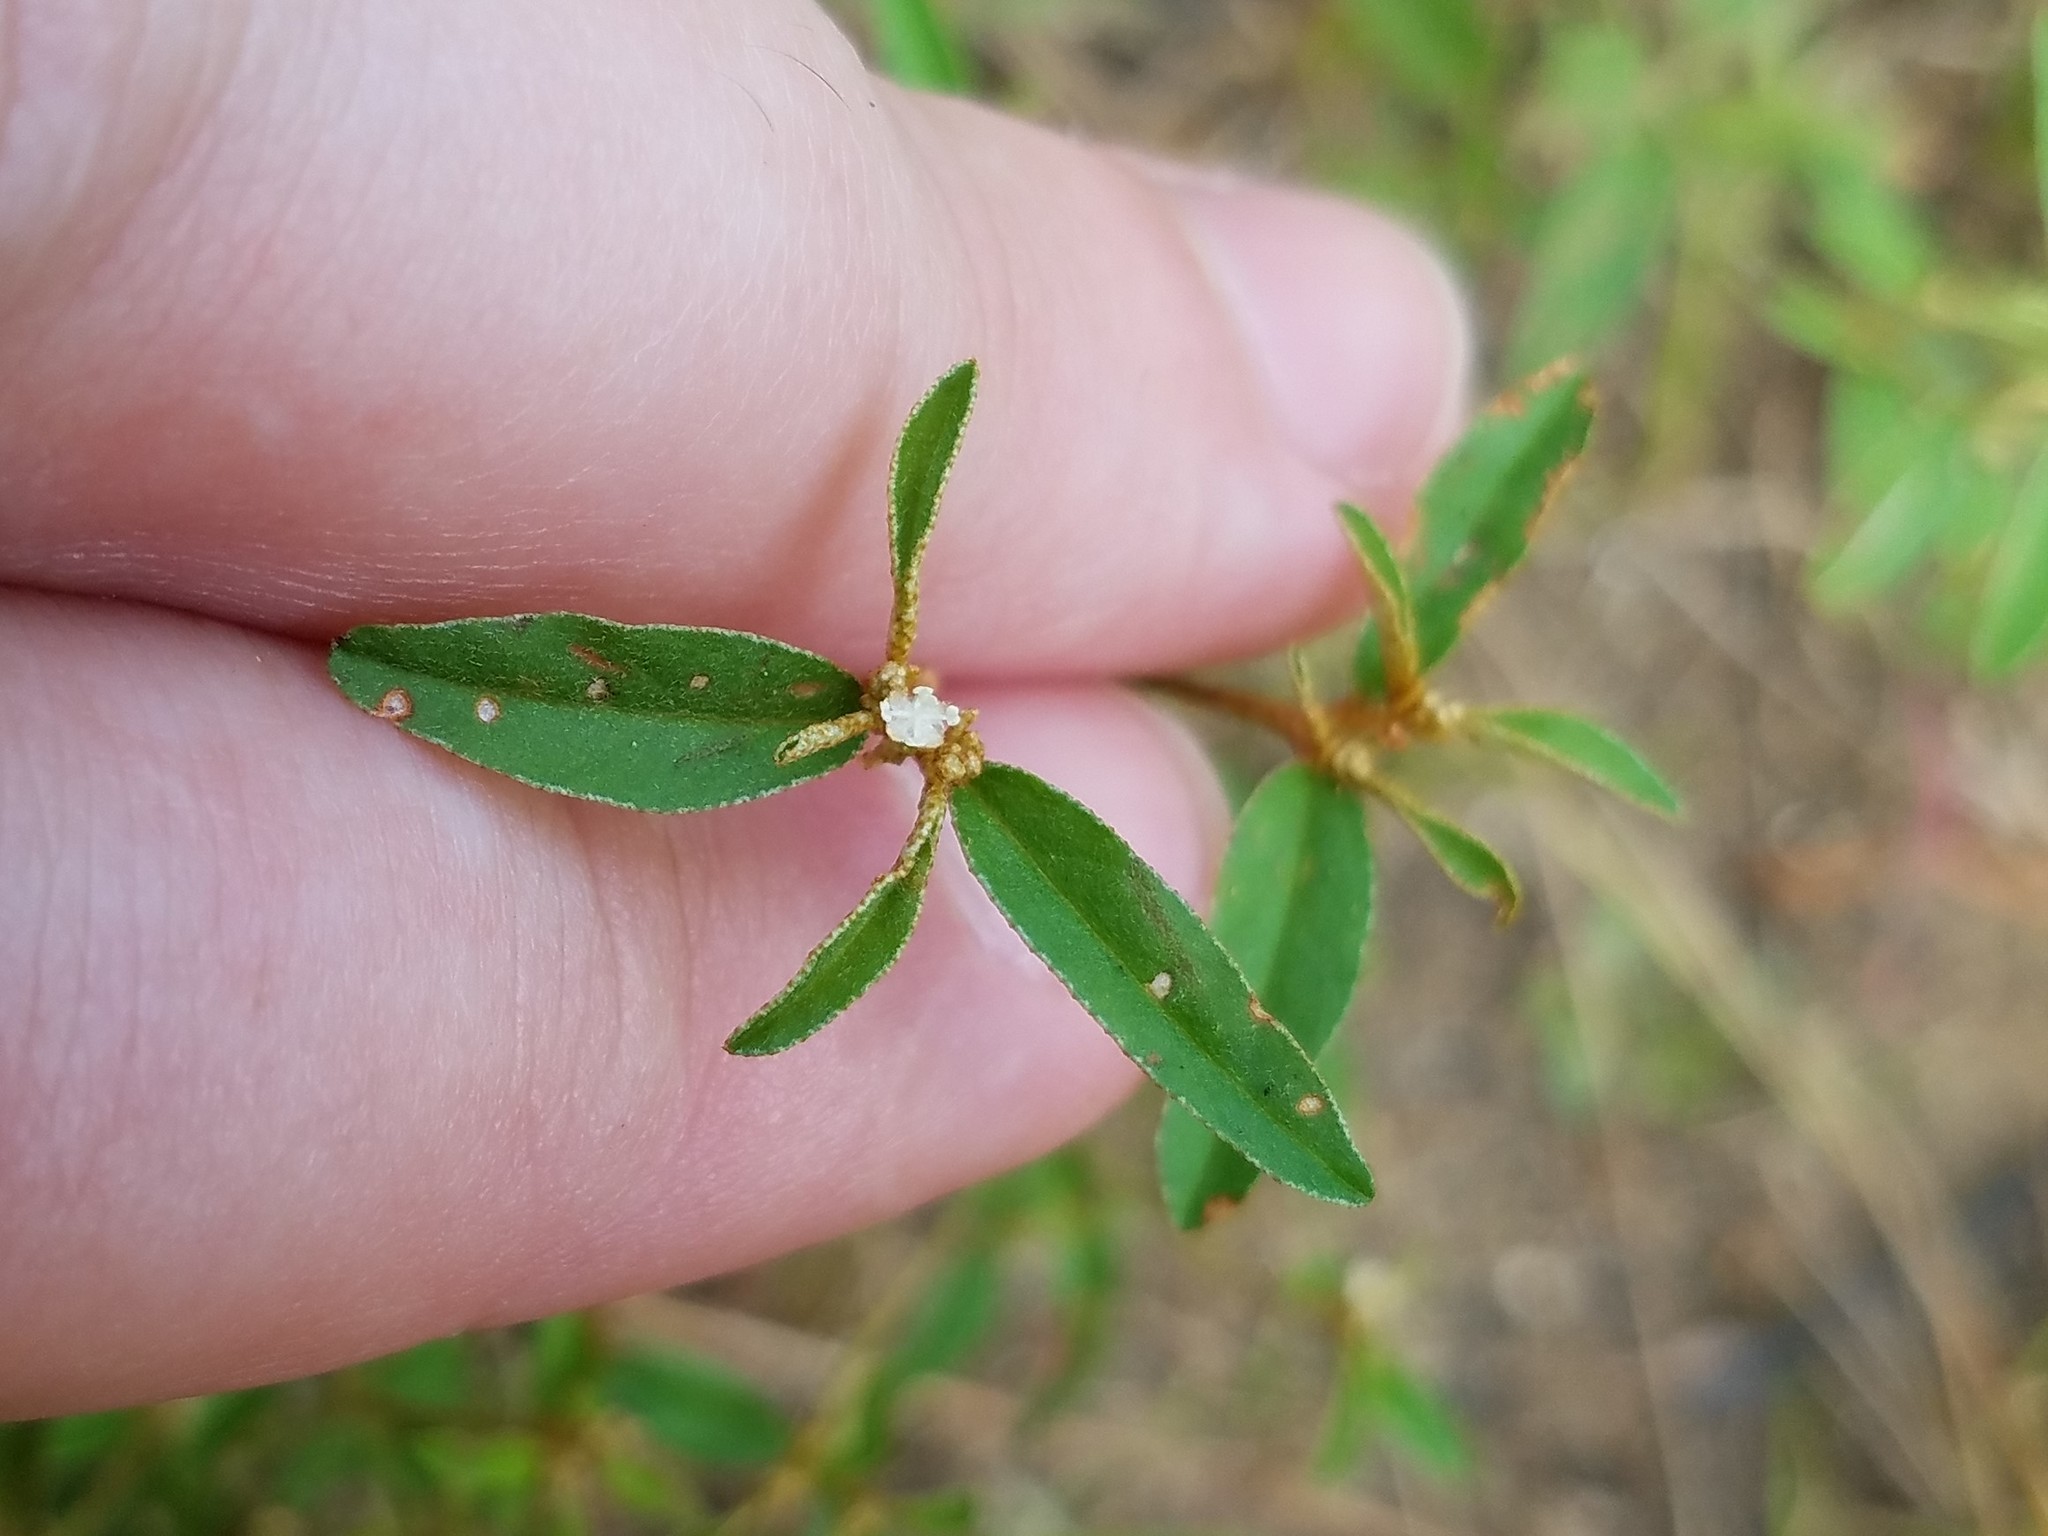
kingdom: Plantae
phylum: Tracheophyta
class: Magnoliopsida
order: Malpighiales
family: Euphorbiaceae
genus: Croton
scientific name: Croton michauxii
